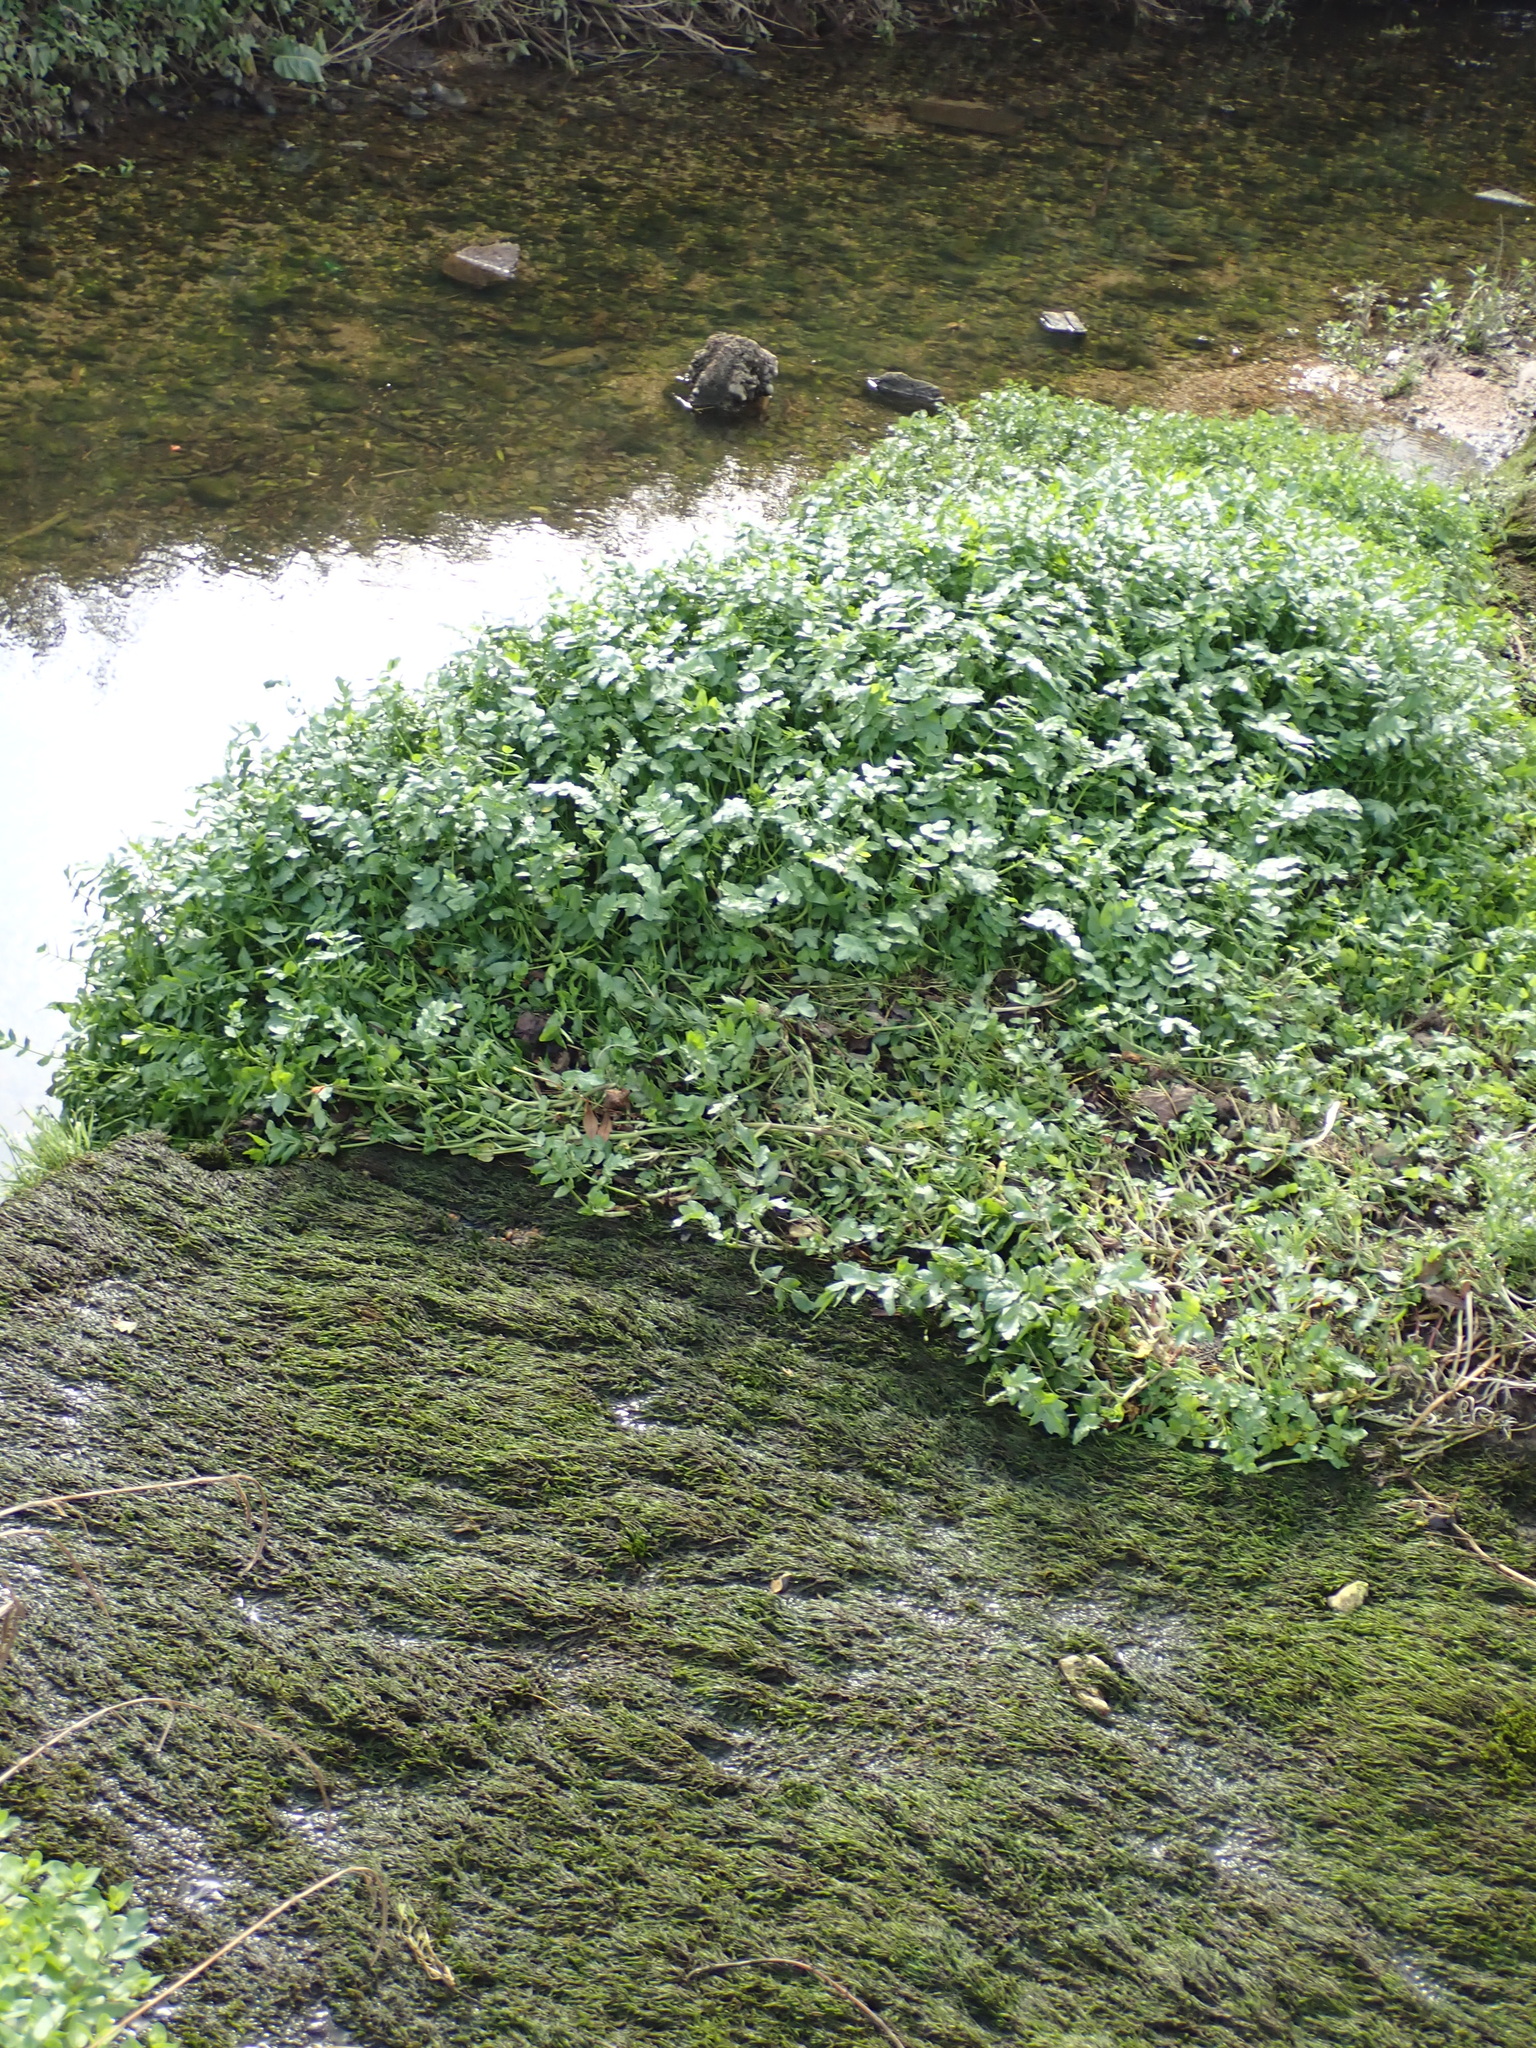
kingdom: Plantae
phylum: Tracheophyta
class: Magnoliopsida
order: Apiales
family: Apiaceae
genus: Helosciadium
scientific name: Helosciadium nodiflorum
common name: Fool's-watercress
